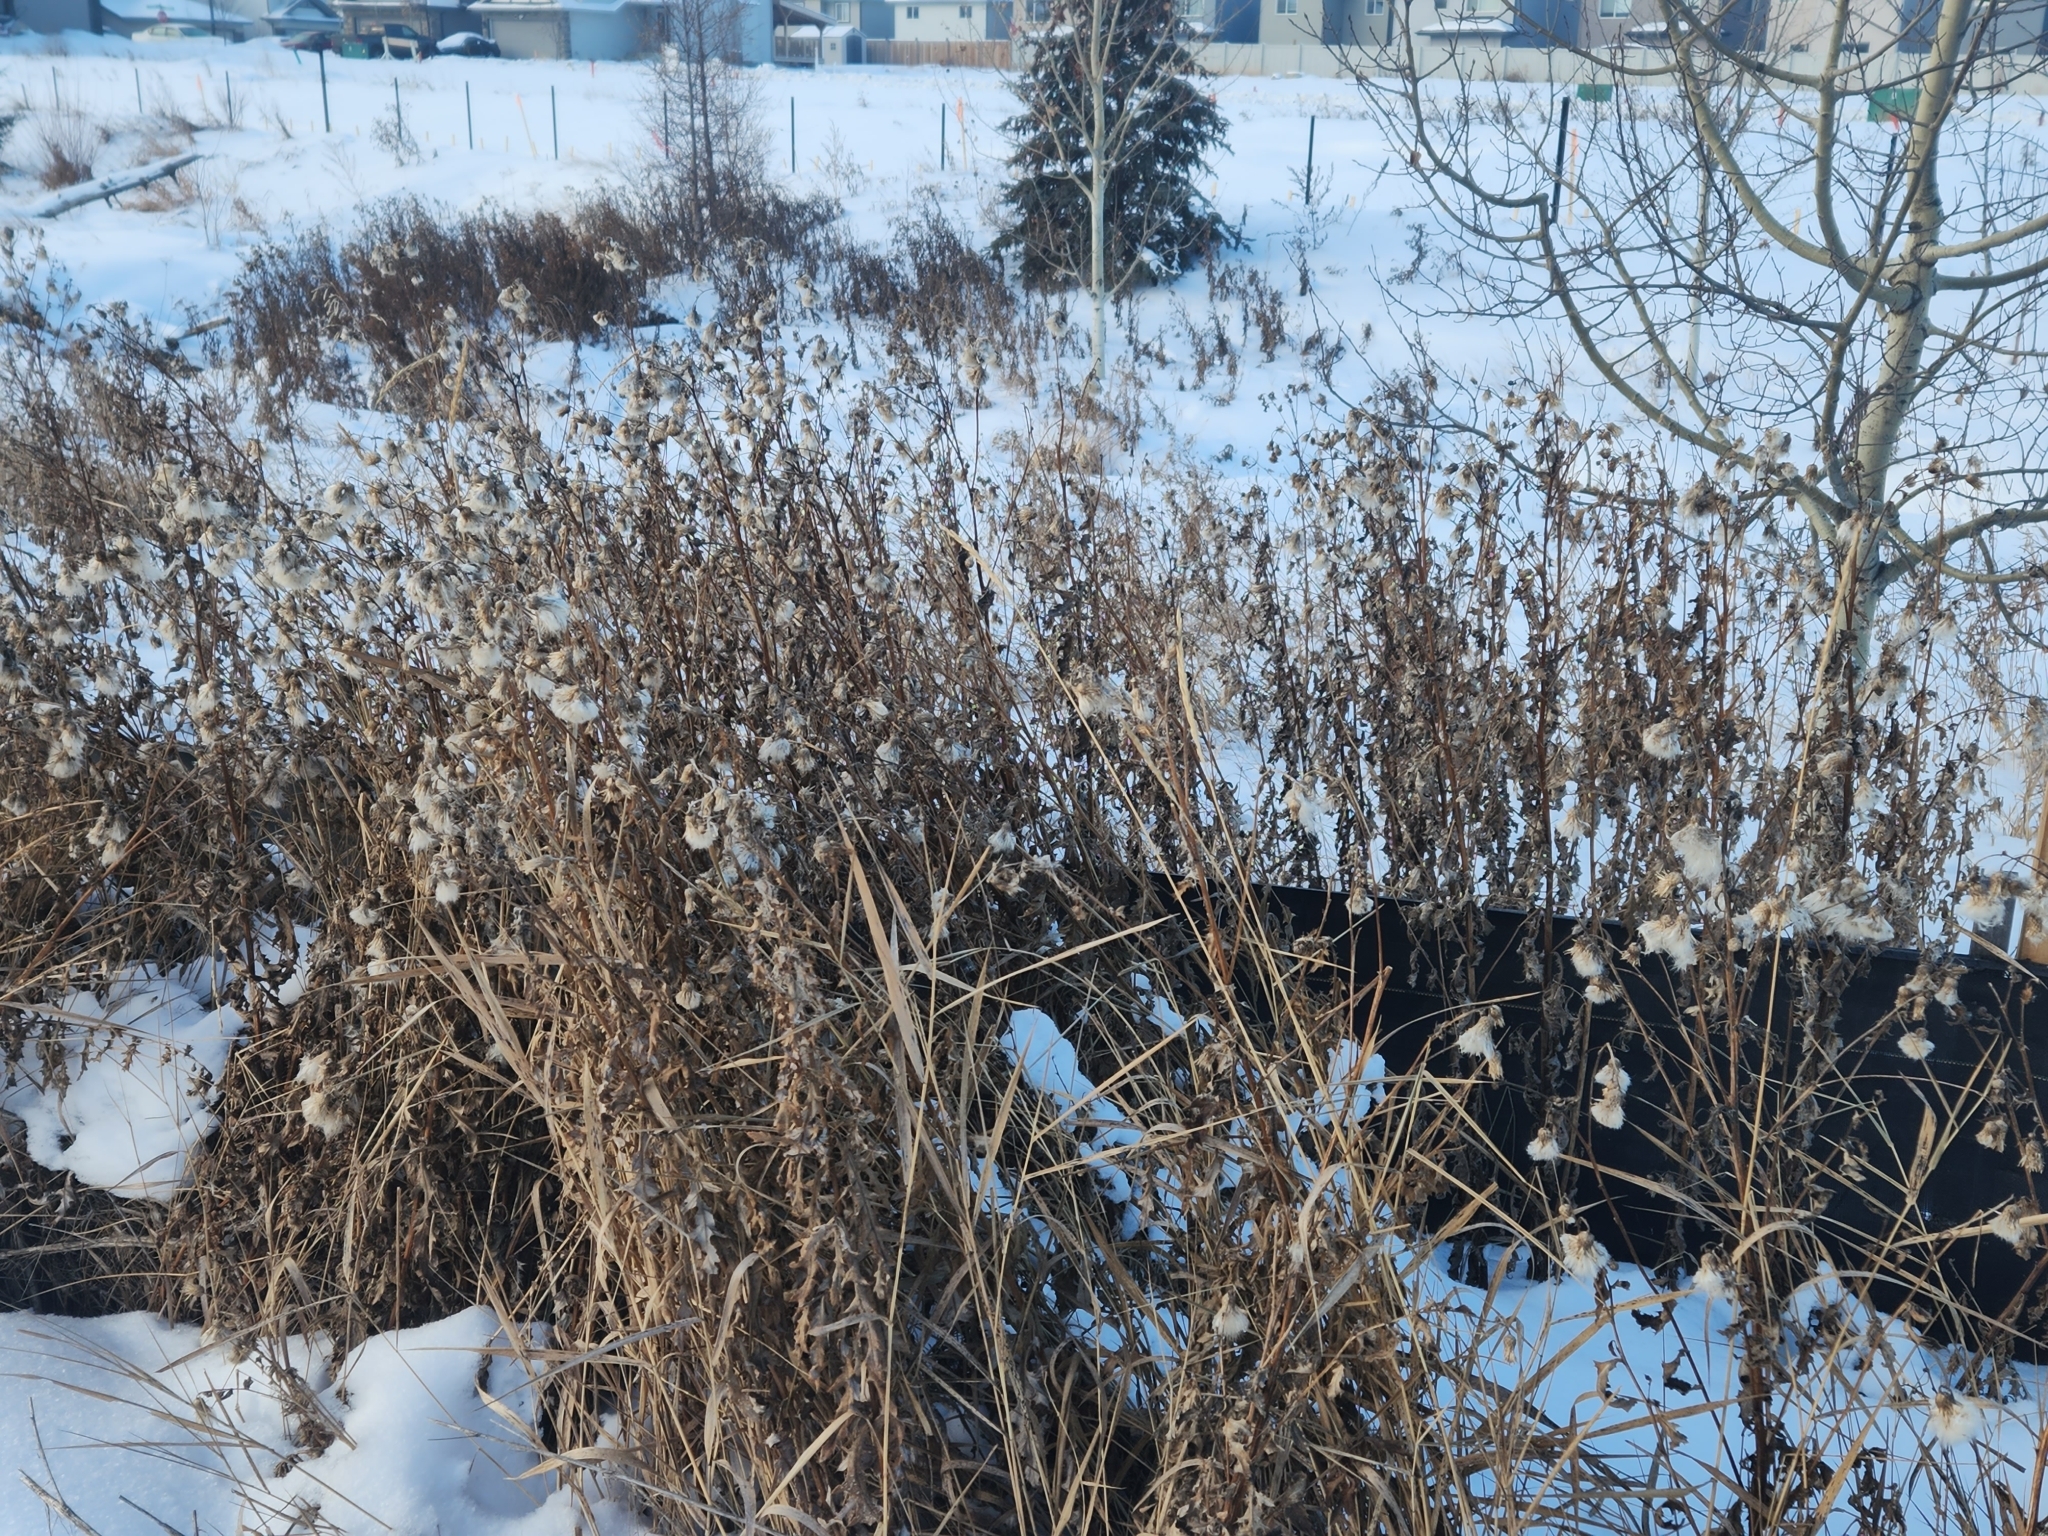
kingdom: Plantae
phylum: Tracheophyta
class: Magnoliopsida
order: Asterales
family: Asteraceae
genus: Cirsium
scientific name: Cirsium arvense
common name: Creeping thistle
